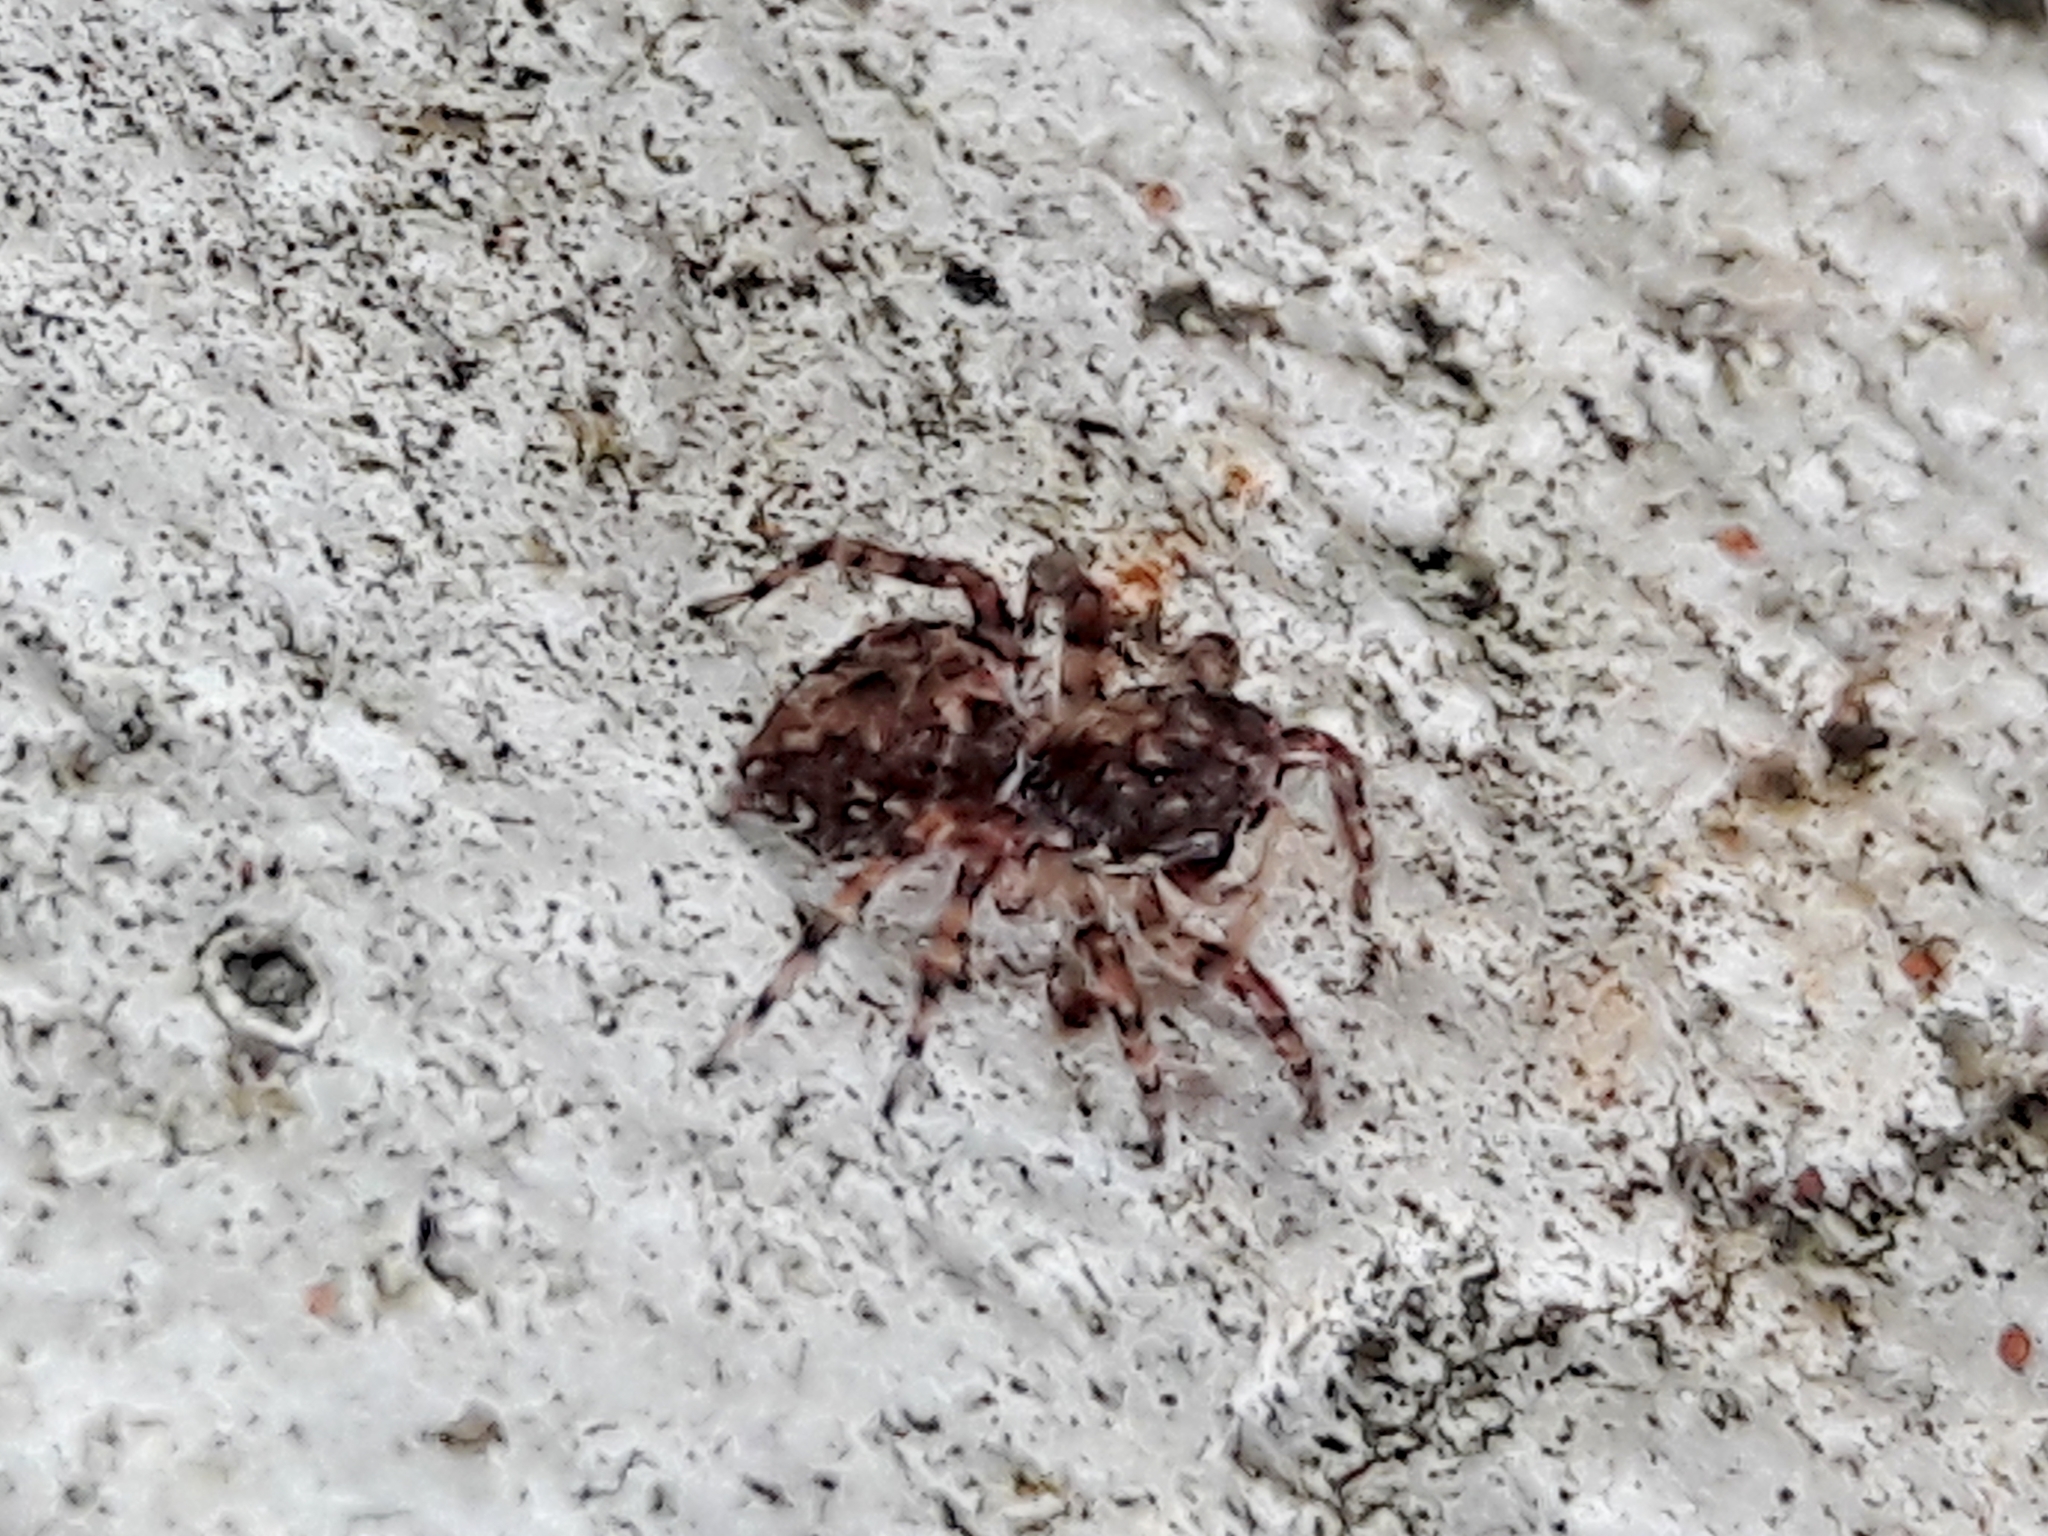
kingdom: Animalia
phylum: Arthropoda
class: Arachnida
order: Araneae
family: Salticidae
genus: Marma
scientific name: Marma nigritarsis
